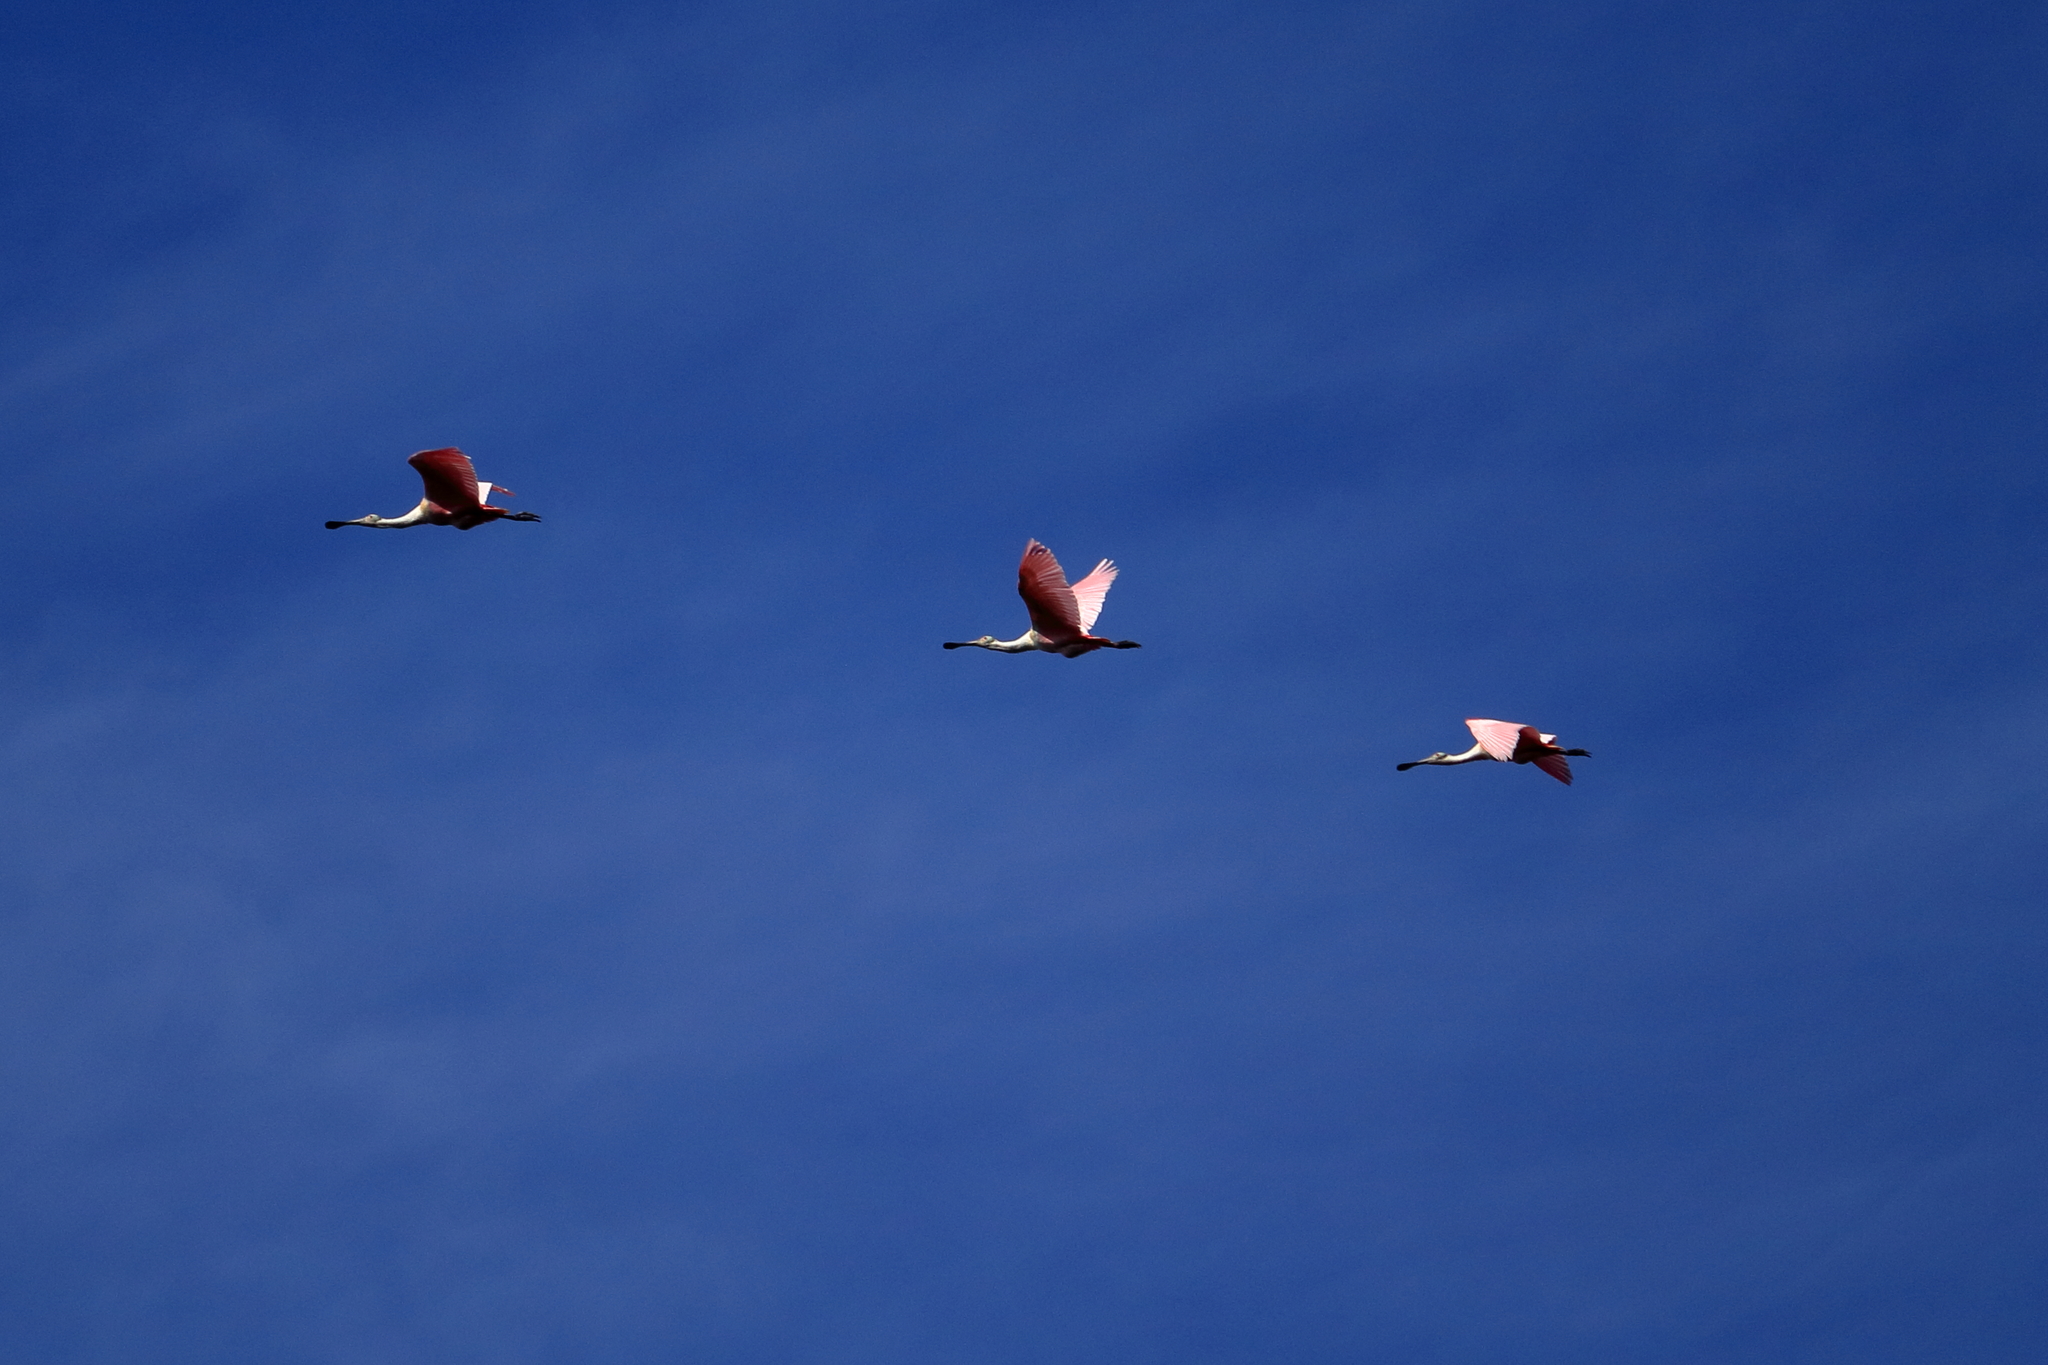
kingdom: Animalia
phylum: Chordata
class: Aves
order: Pelecaniformes
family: Threskiornithidae
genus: Platalea
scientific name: Platalea ajaja
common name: Roseate spoonbill
